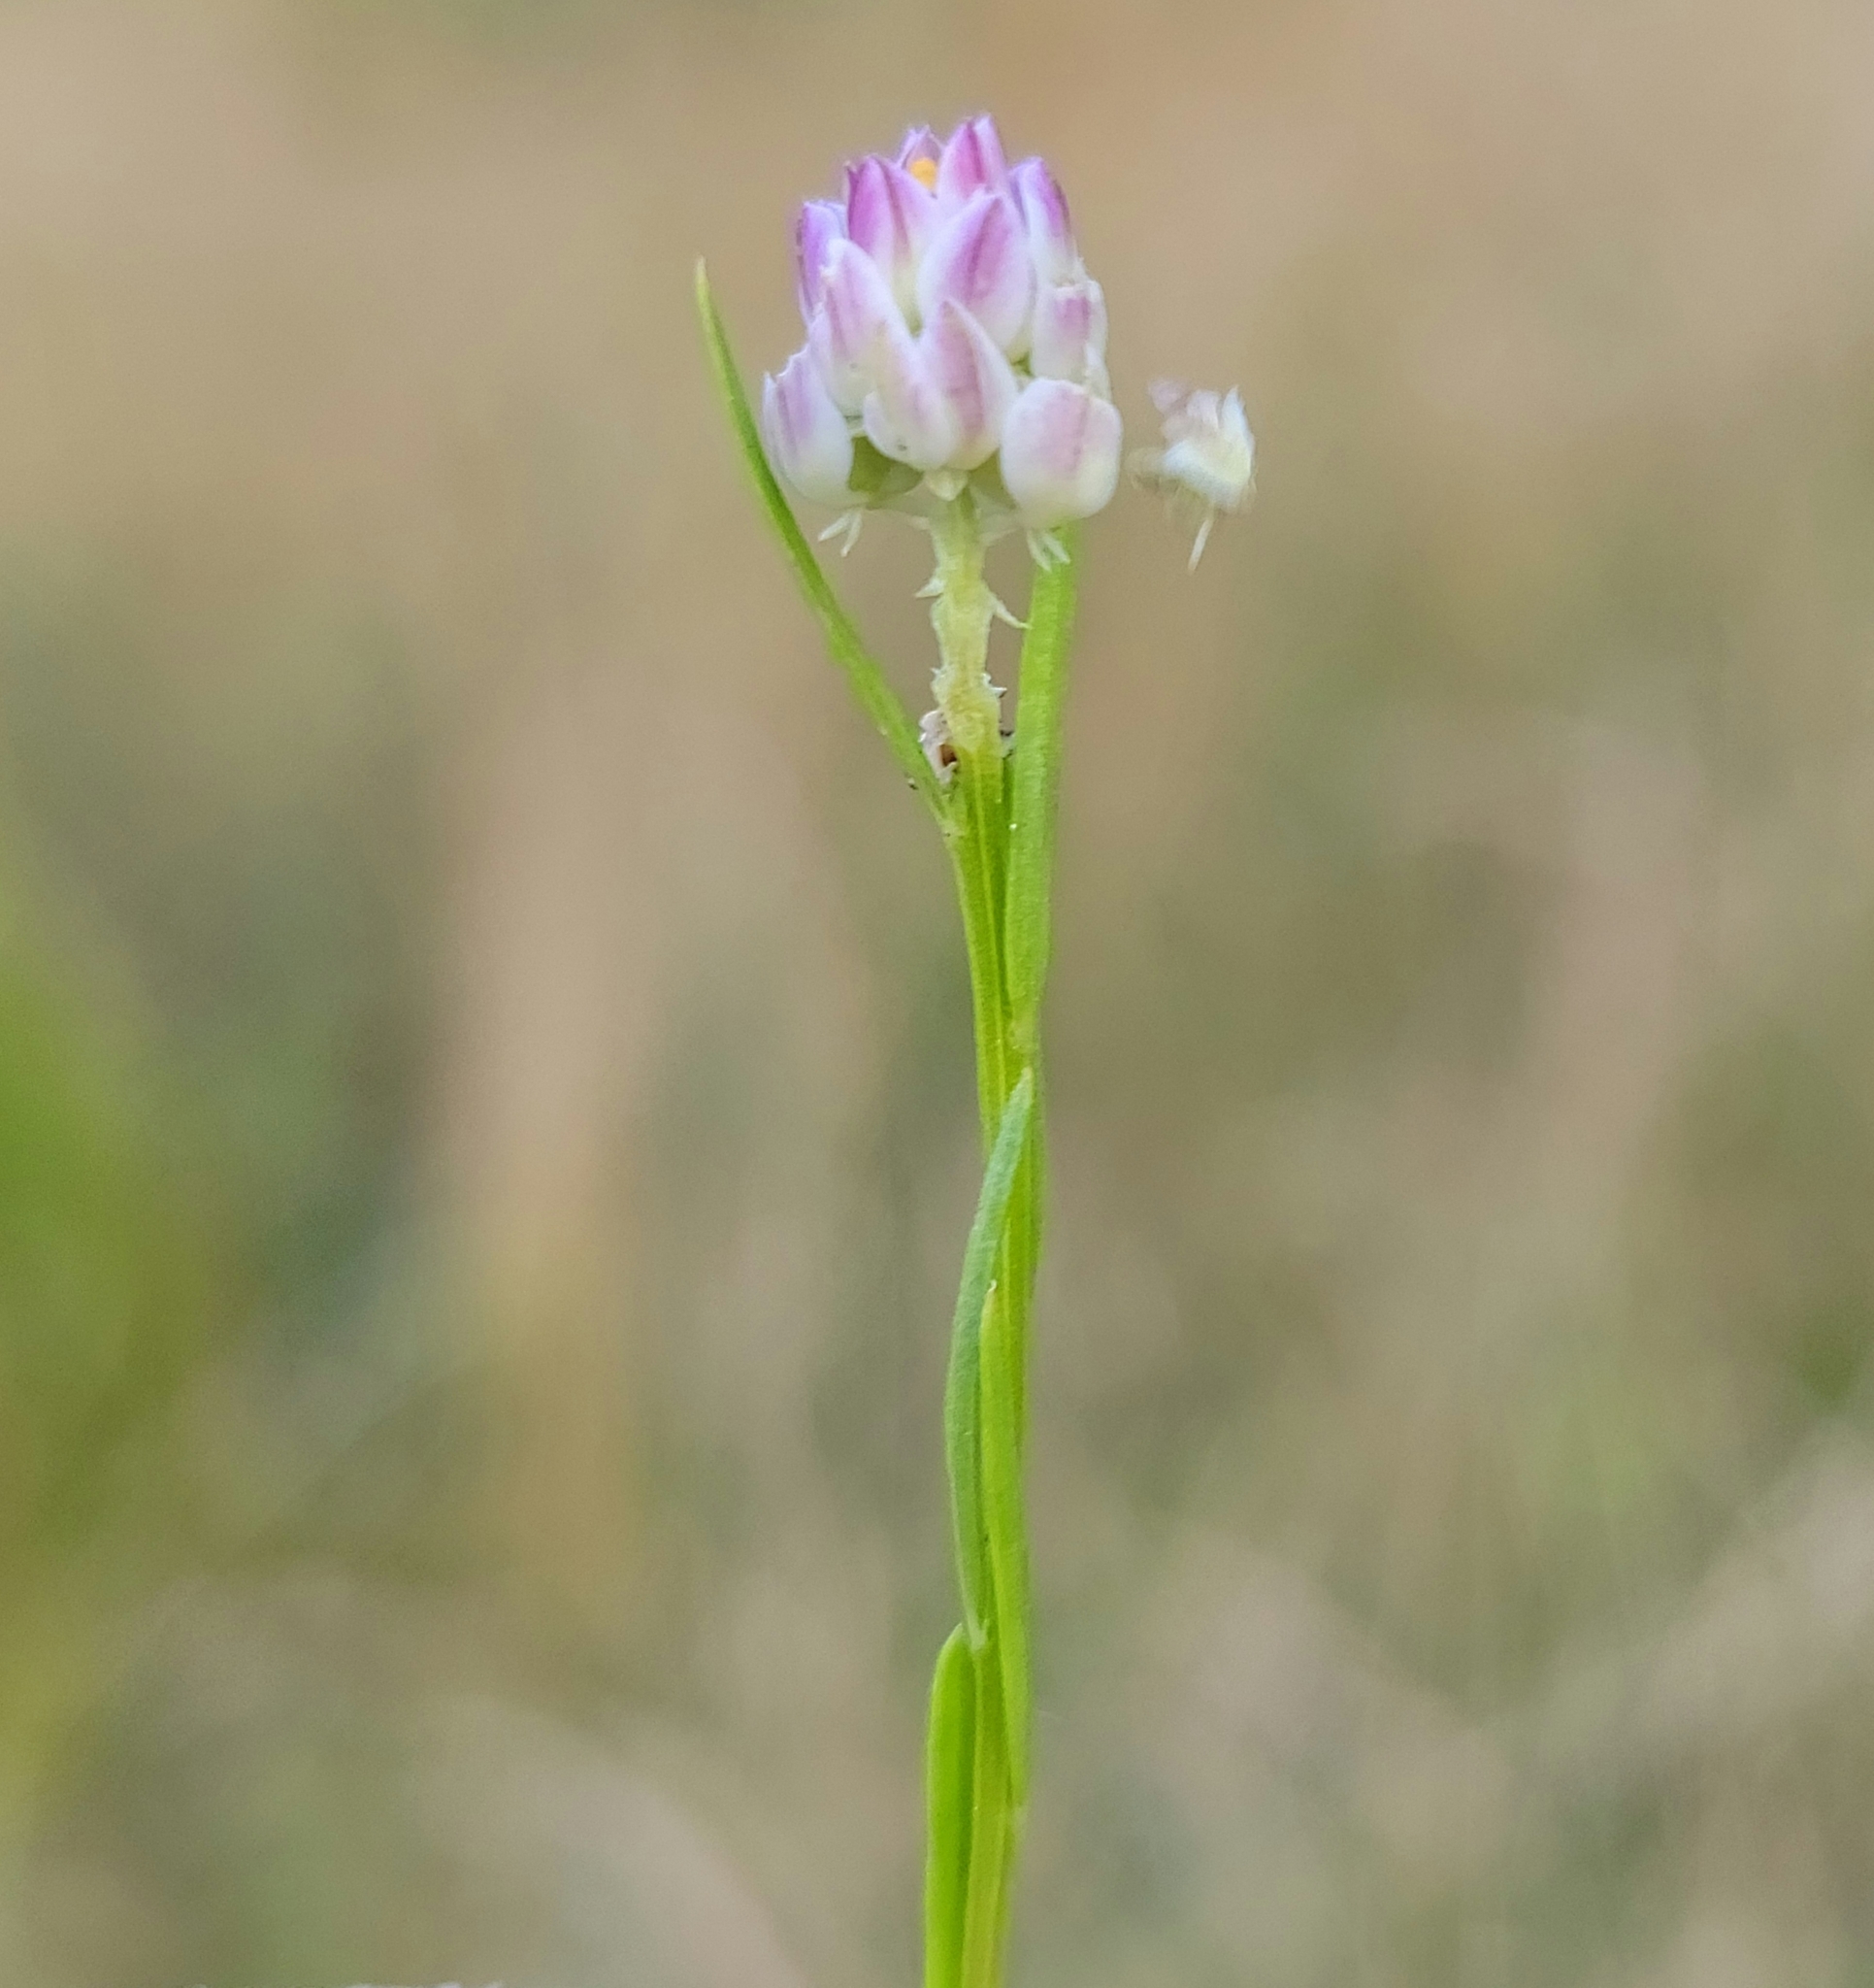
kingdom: Plantae
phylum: Tracheophyta
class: Magnoliopsida
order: Fabales
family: Polygalaceae
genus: Polygala
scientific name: Polygala sanguinea
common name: Blood milkwort
